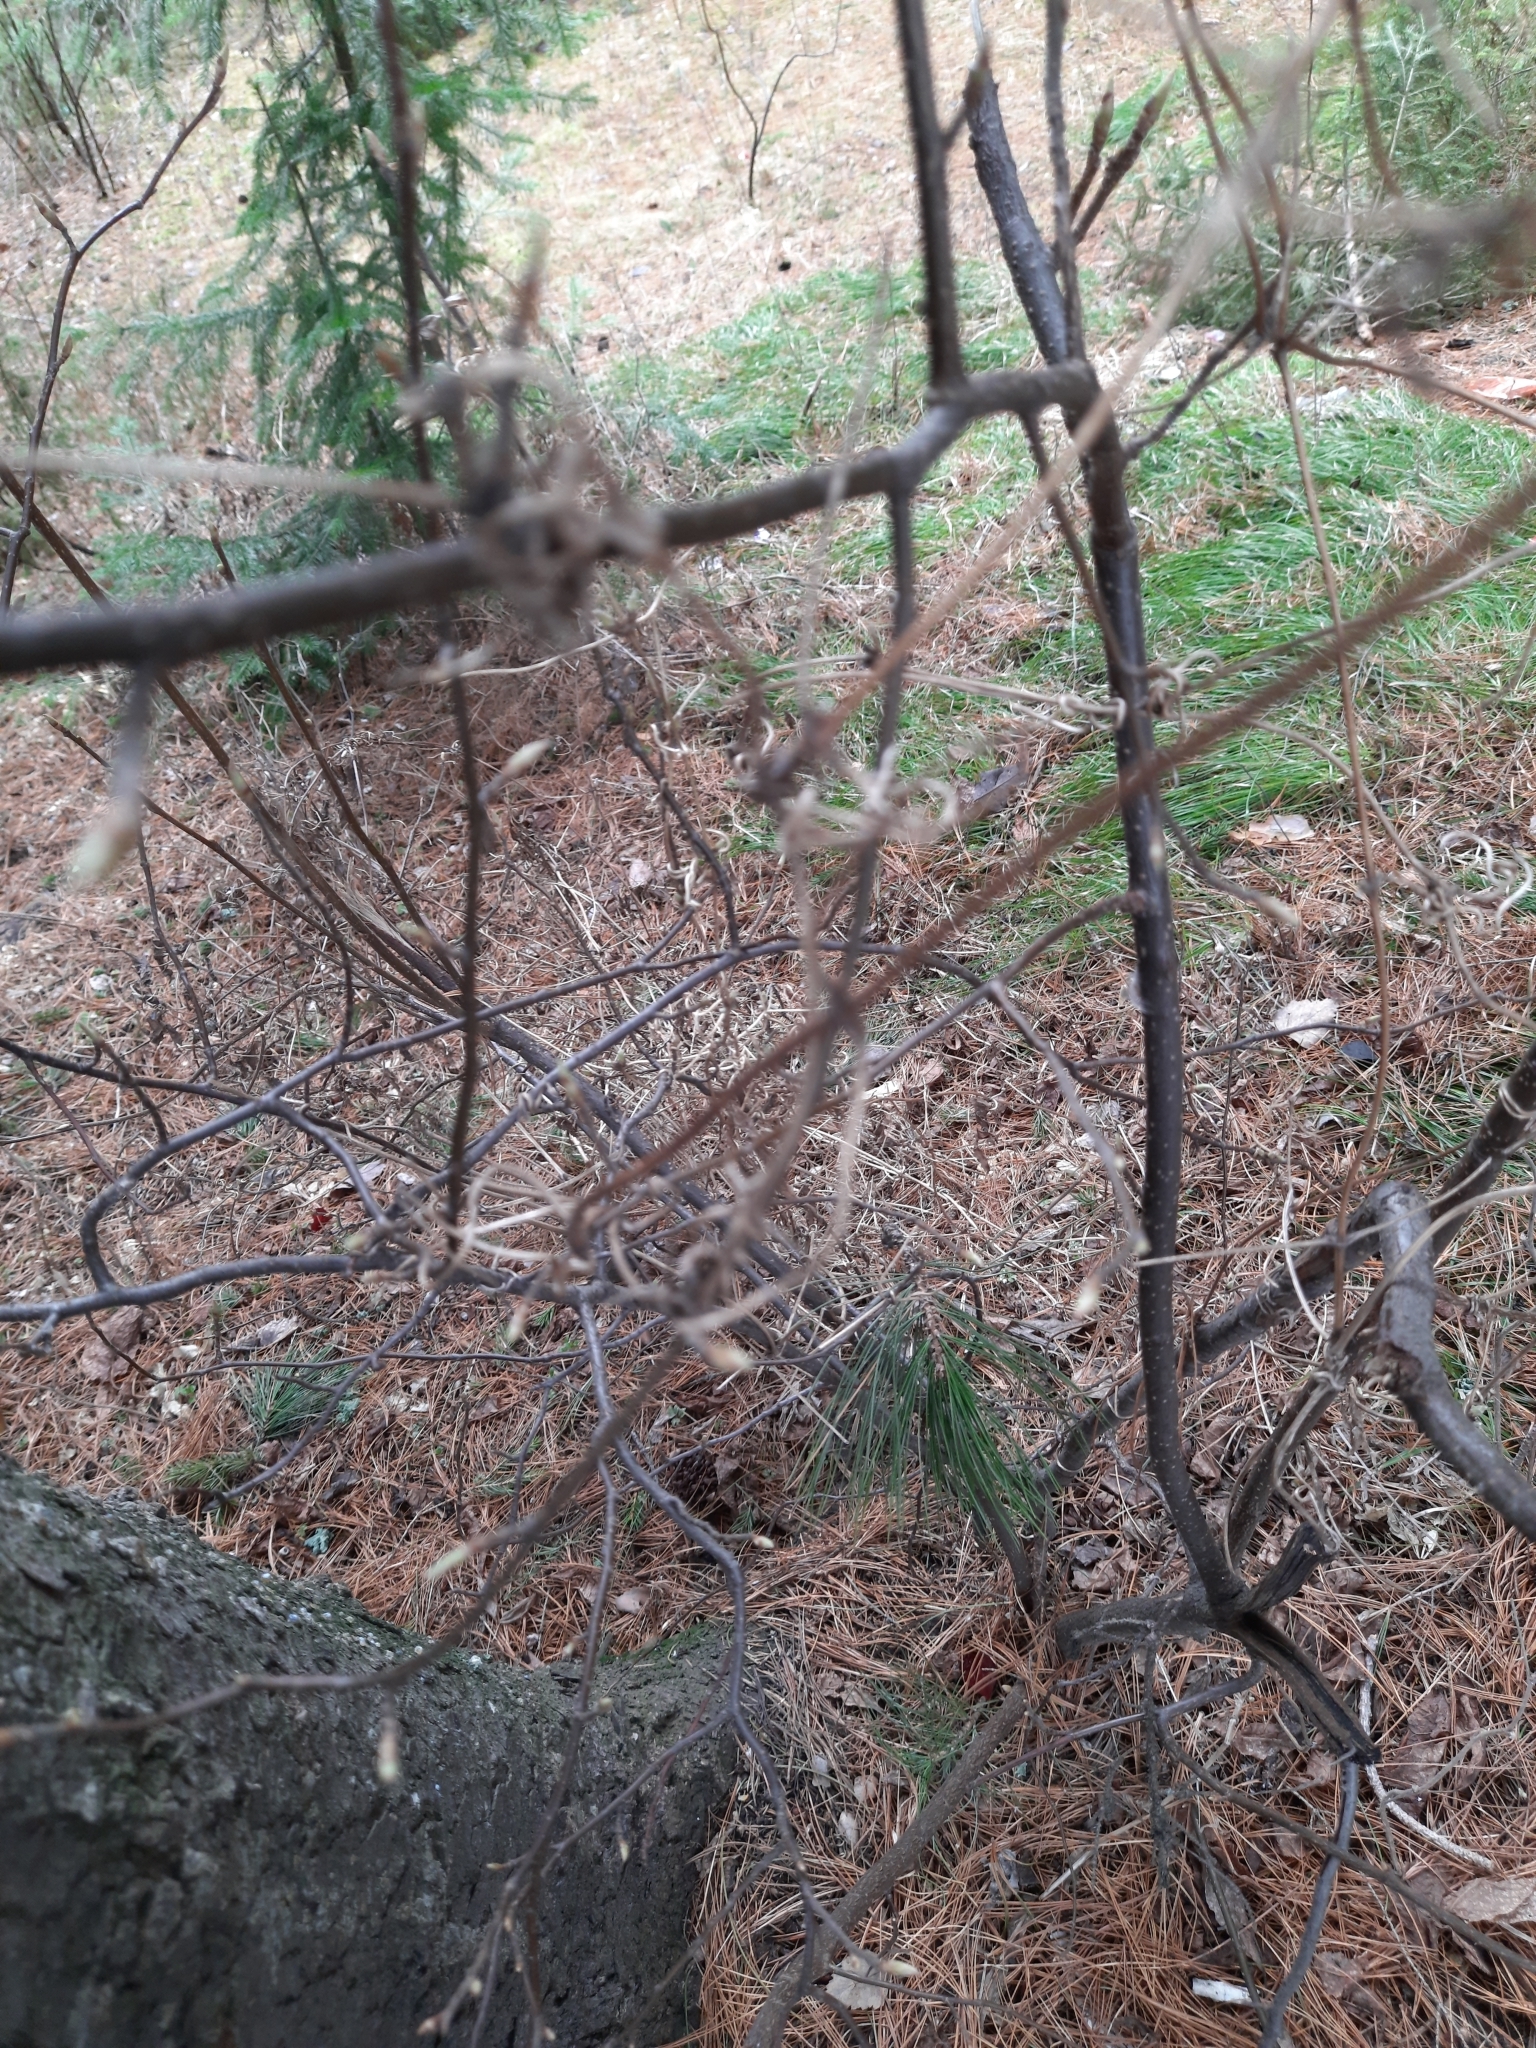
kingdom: Plantae
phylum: Tracheophyta
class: Magnoliopsida
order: Ranunculales
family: Ranunculaceae
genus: Clematis
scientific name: Clematis sibirica
